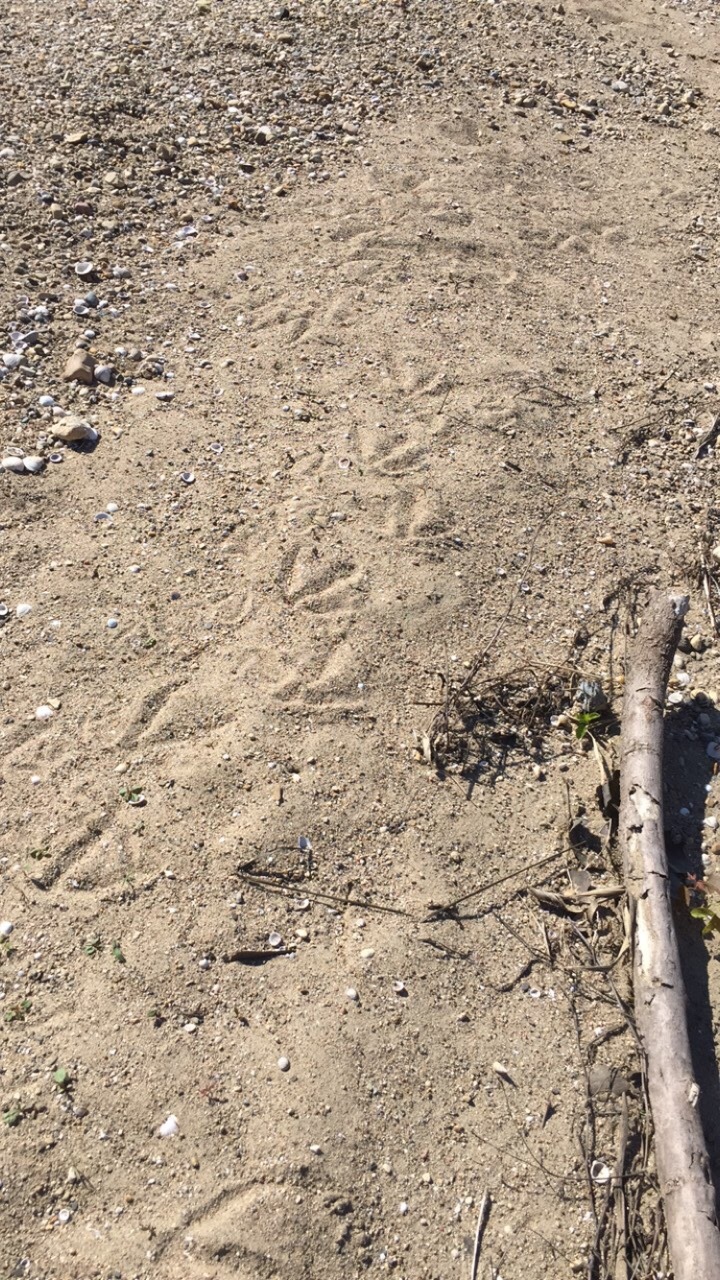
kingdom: Animalia
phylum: Chordata
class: Aves
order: Anseriformes
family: Anatidae
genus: Branta
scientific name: Branta canadensis
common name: Canada goose
